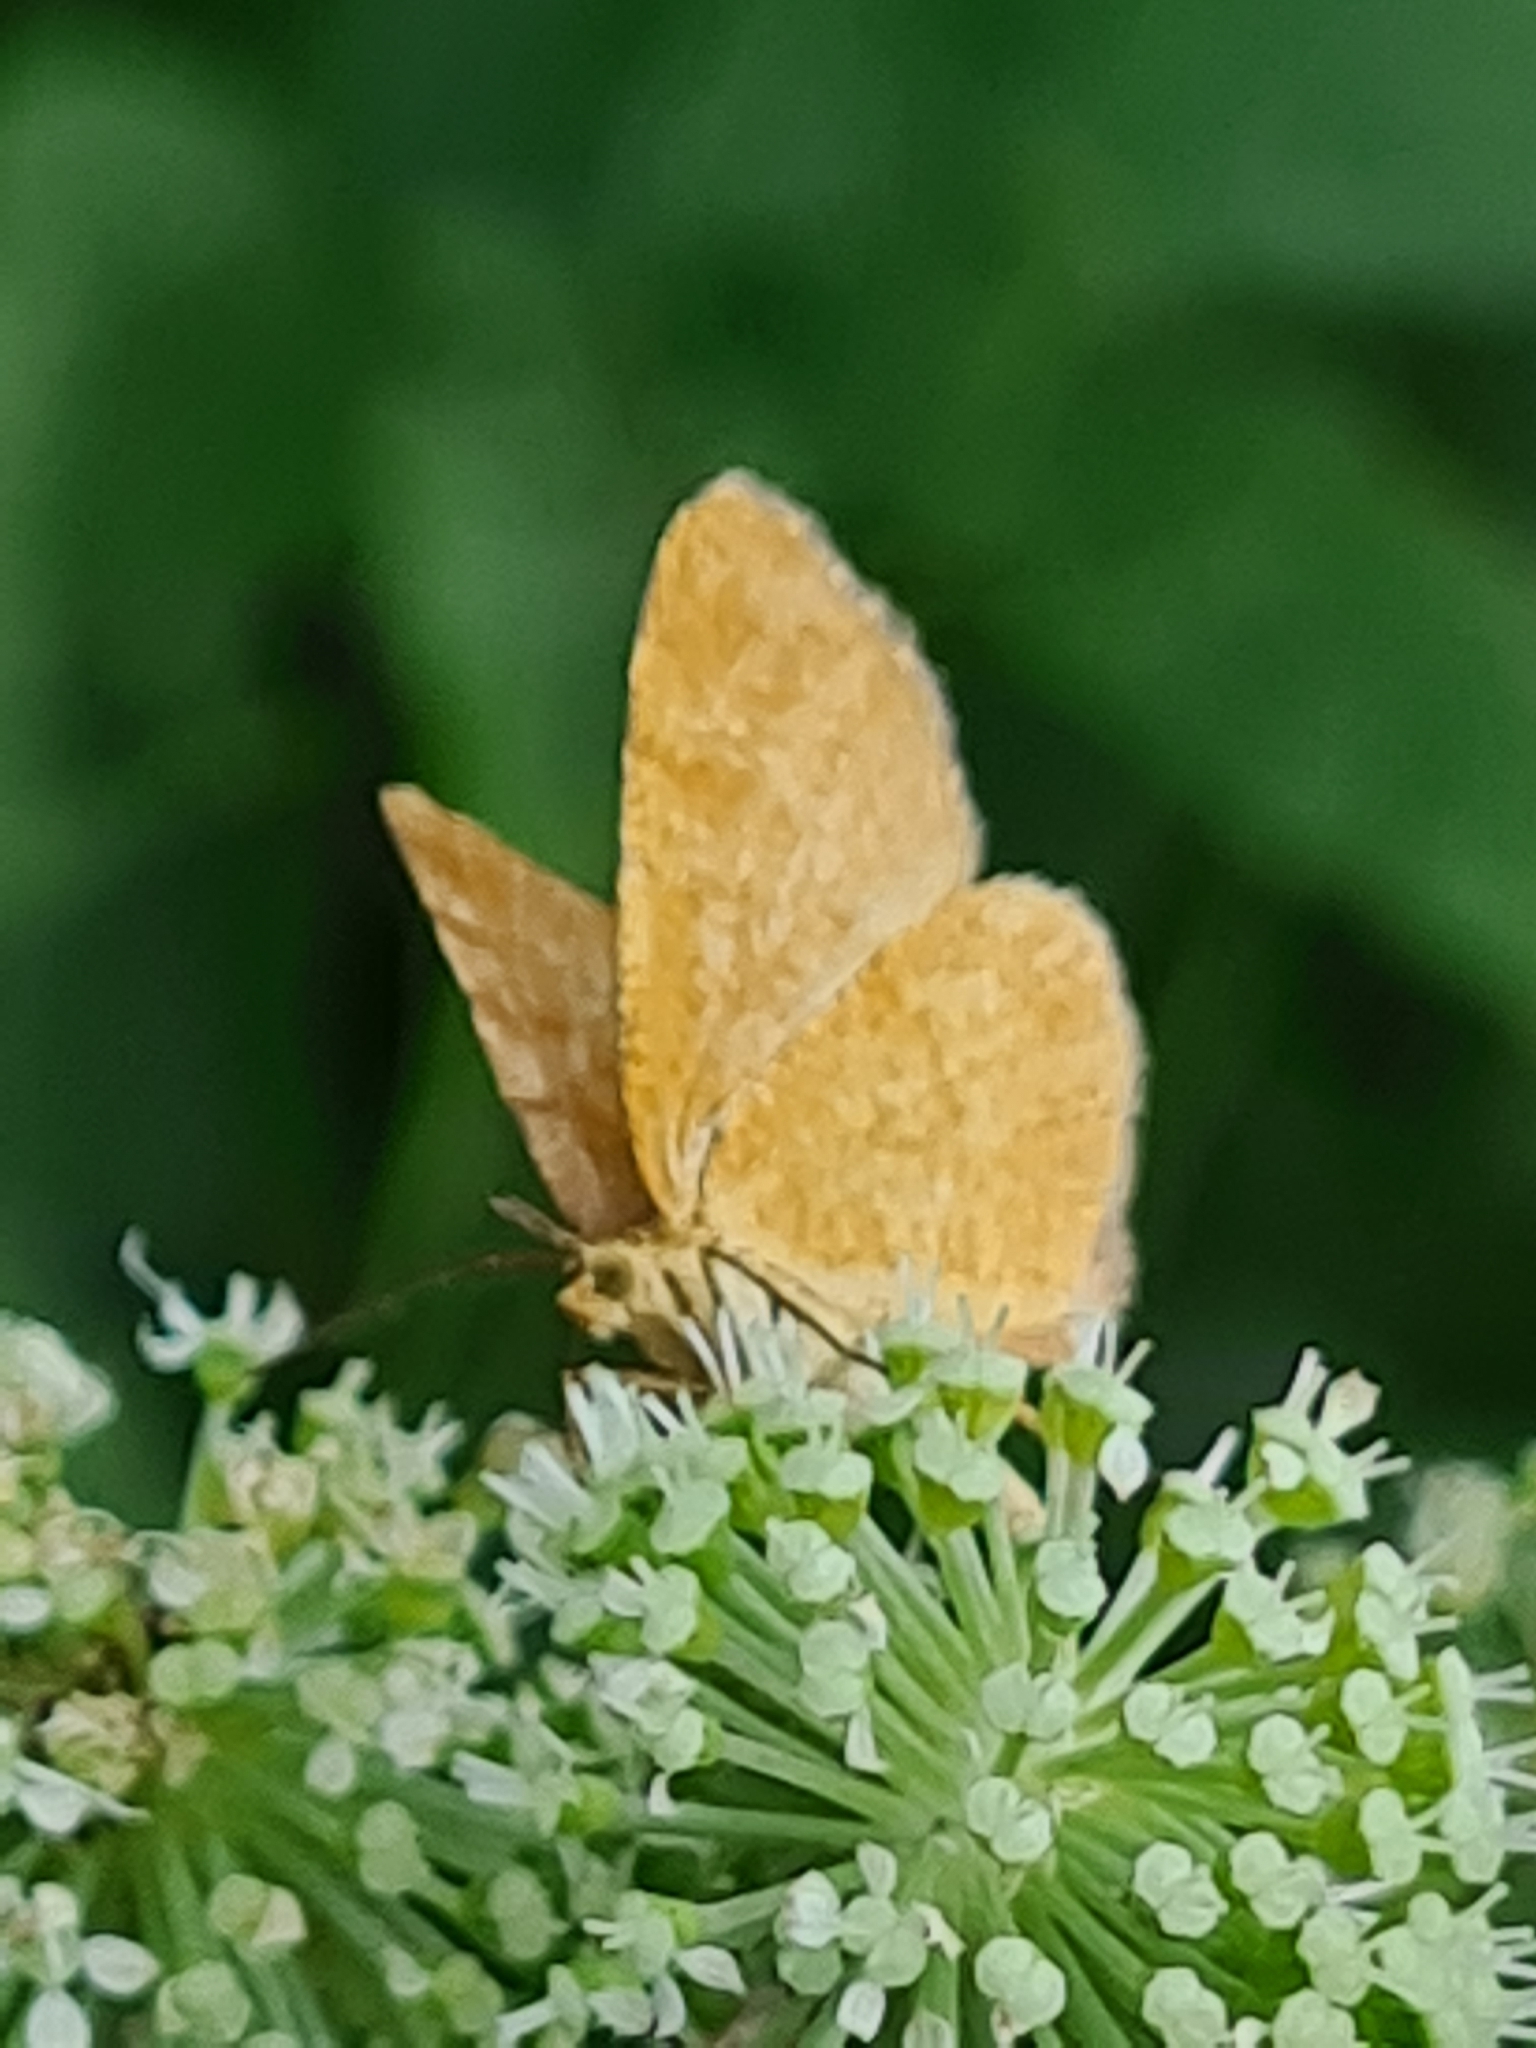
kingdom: Animalia
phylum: Arthropoda
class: Insecta
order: Lepidoptera
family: Geometridae
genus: Macaria
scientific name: Macaria brunneata
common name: Rannoch looper
